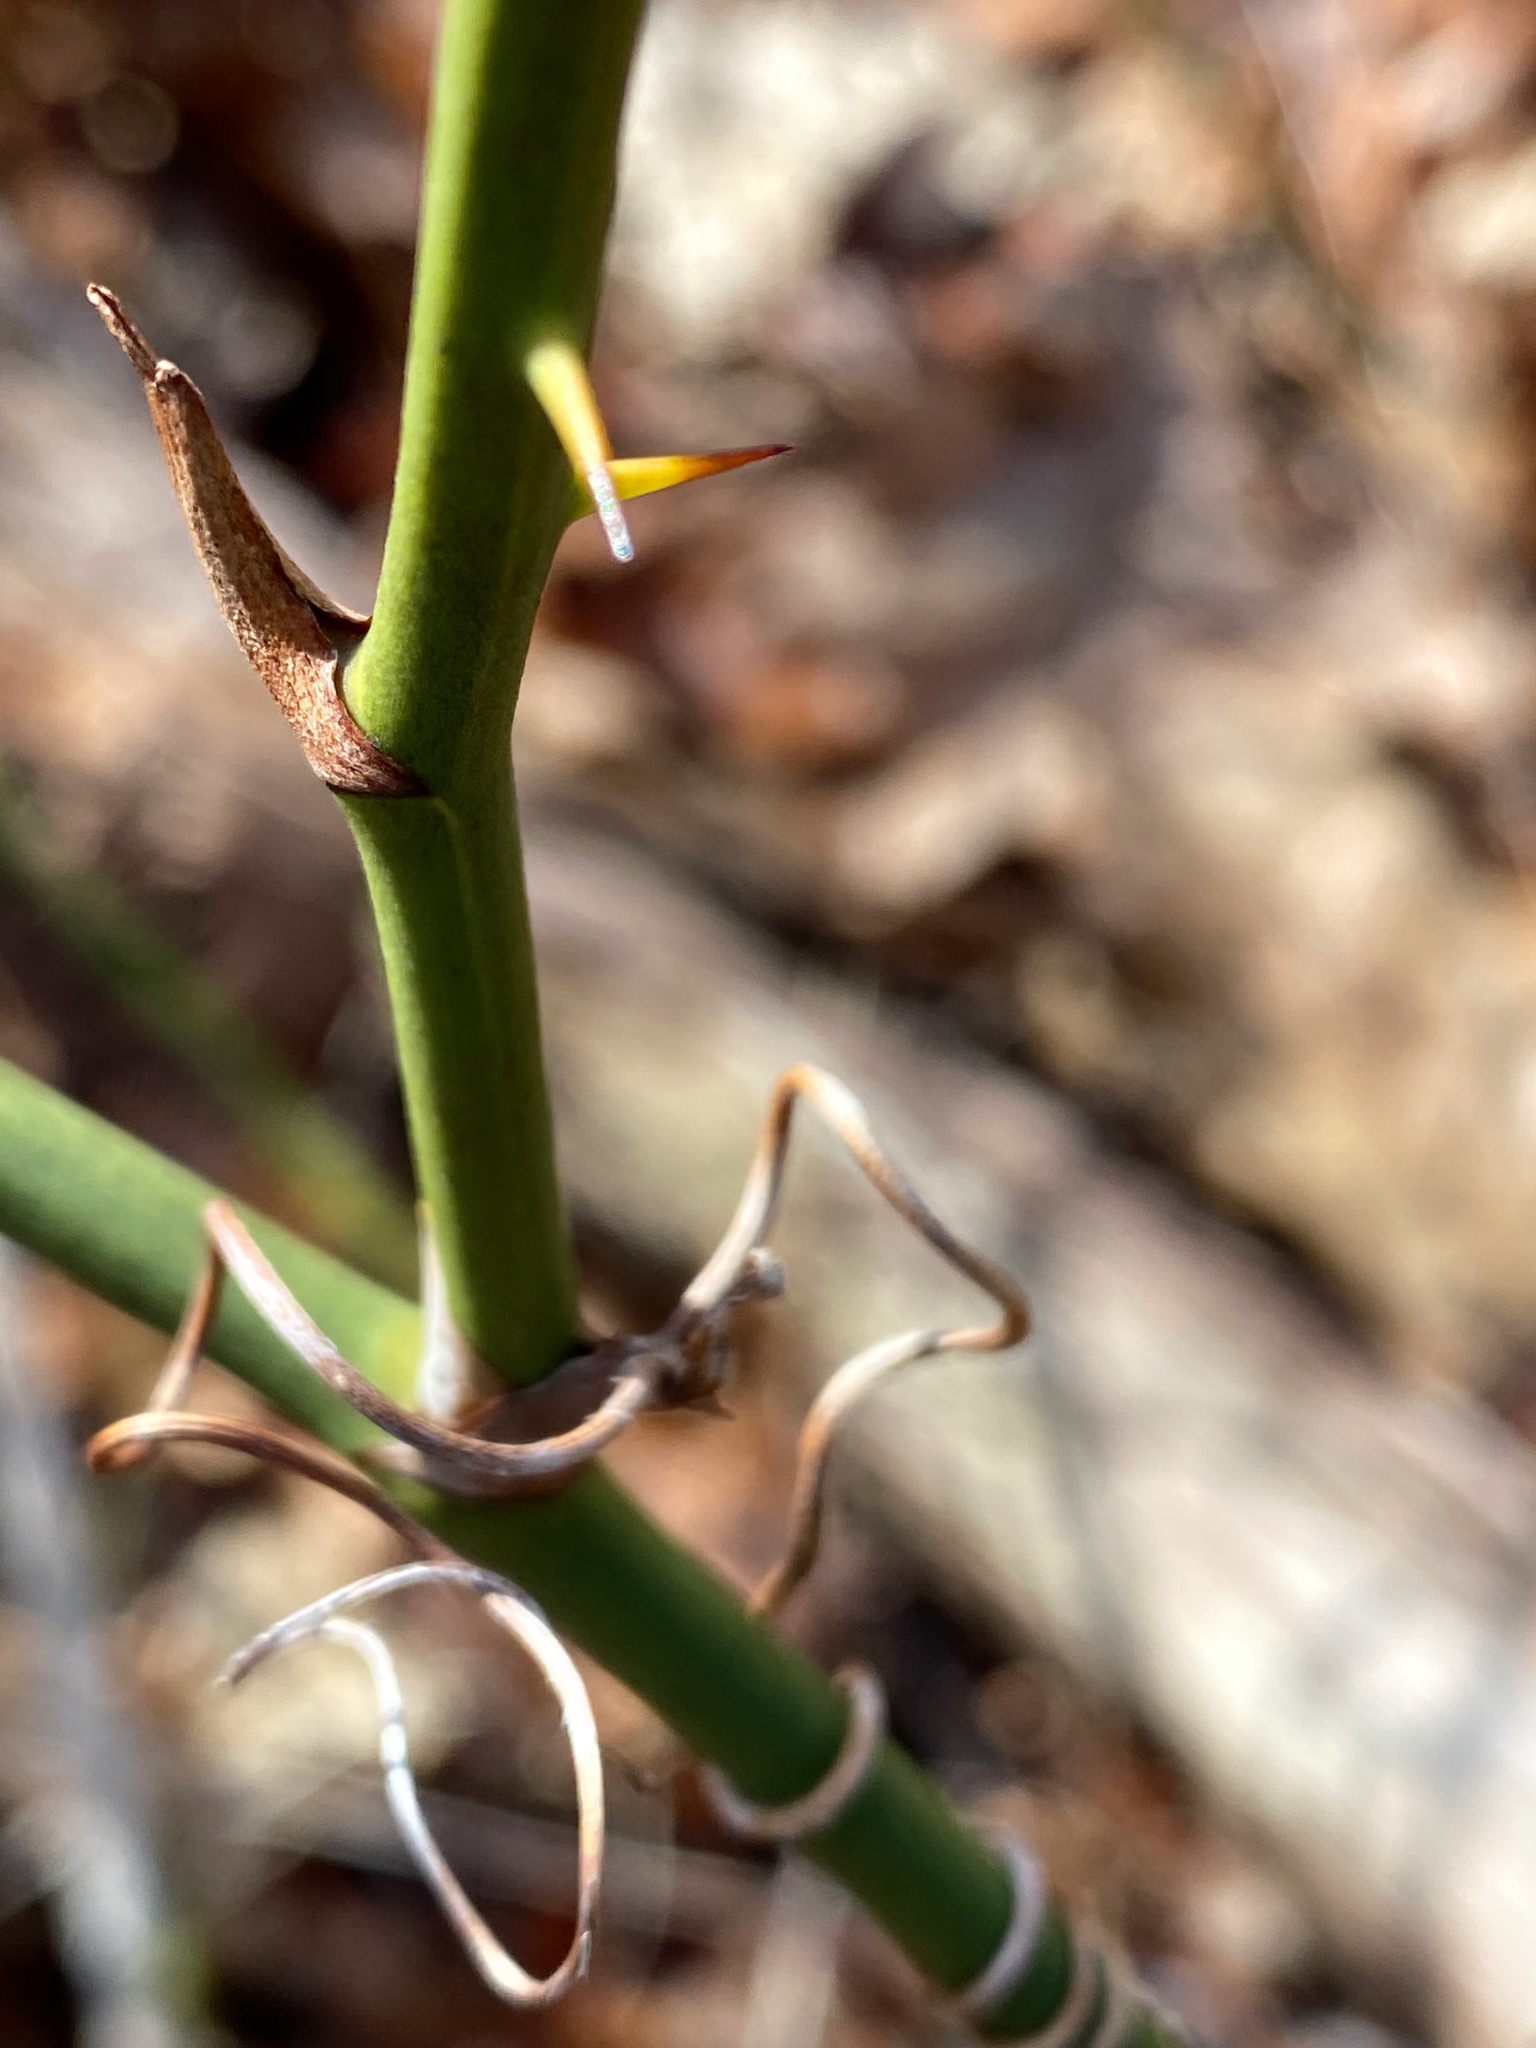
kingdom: Plantae
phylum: Tracheophyta
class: Liliopsida
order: Liliales
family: Smilacaceae
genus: Smilax
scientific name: Smilax rotundifolia
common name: Bullbriar
